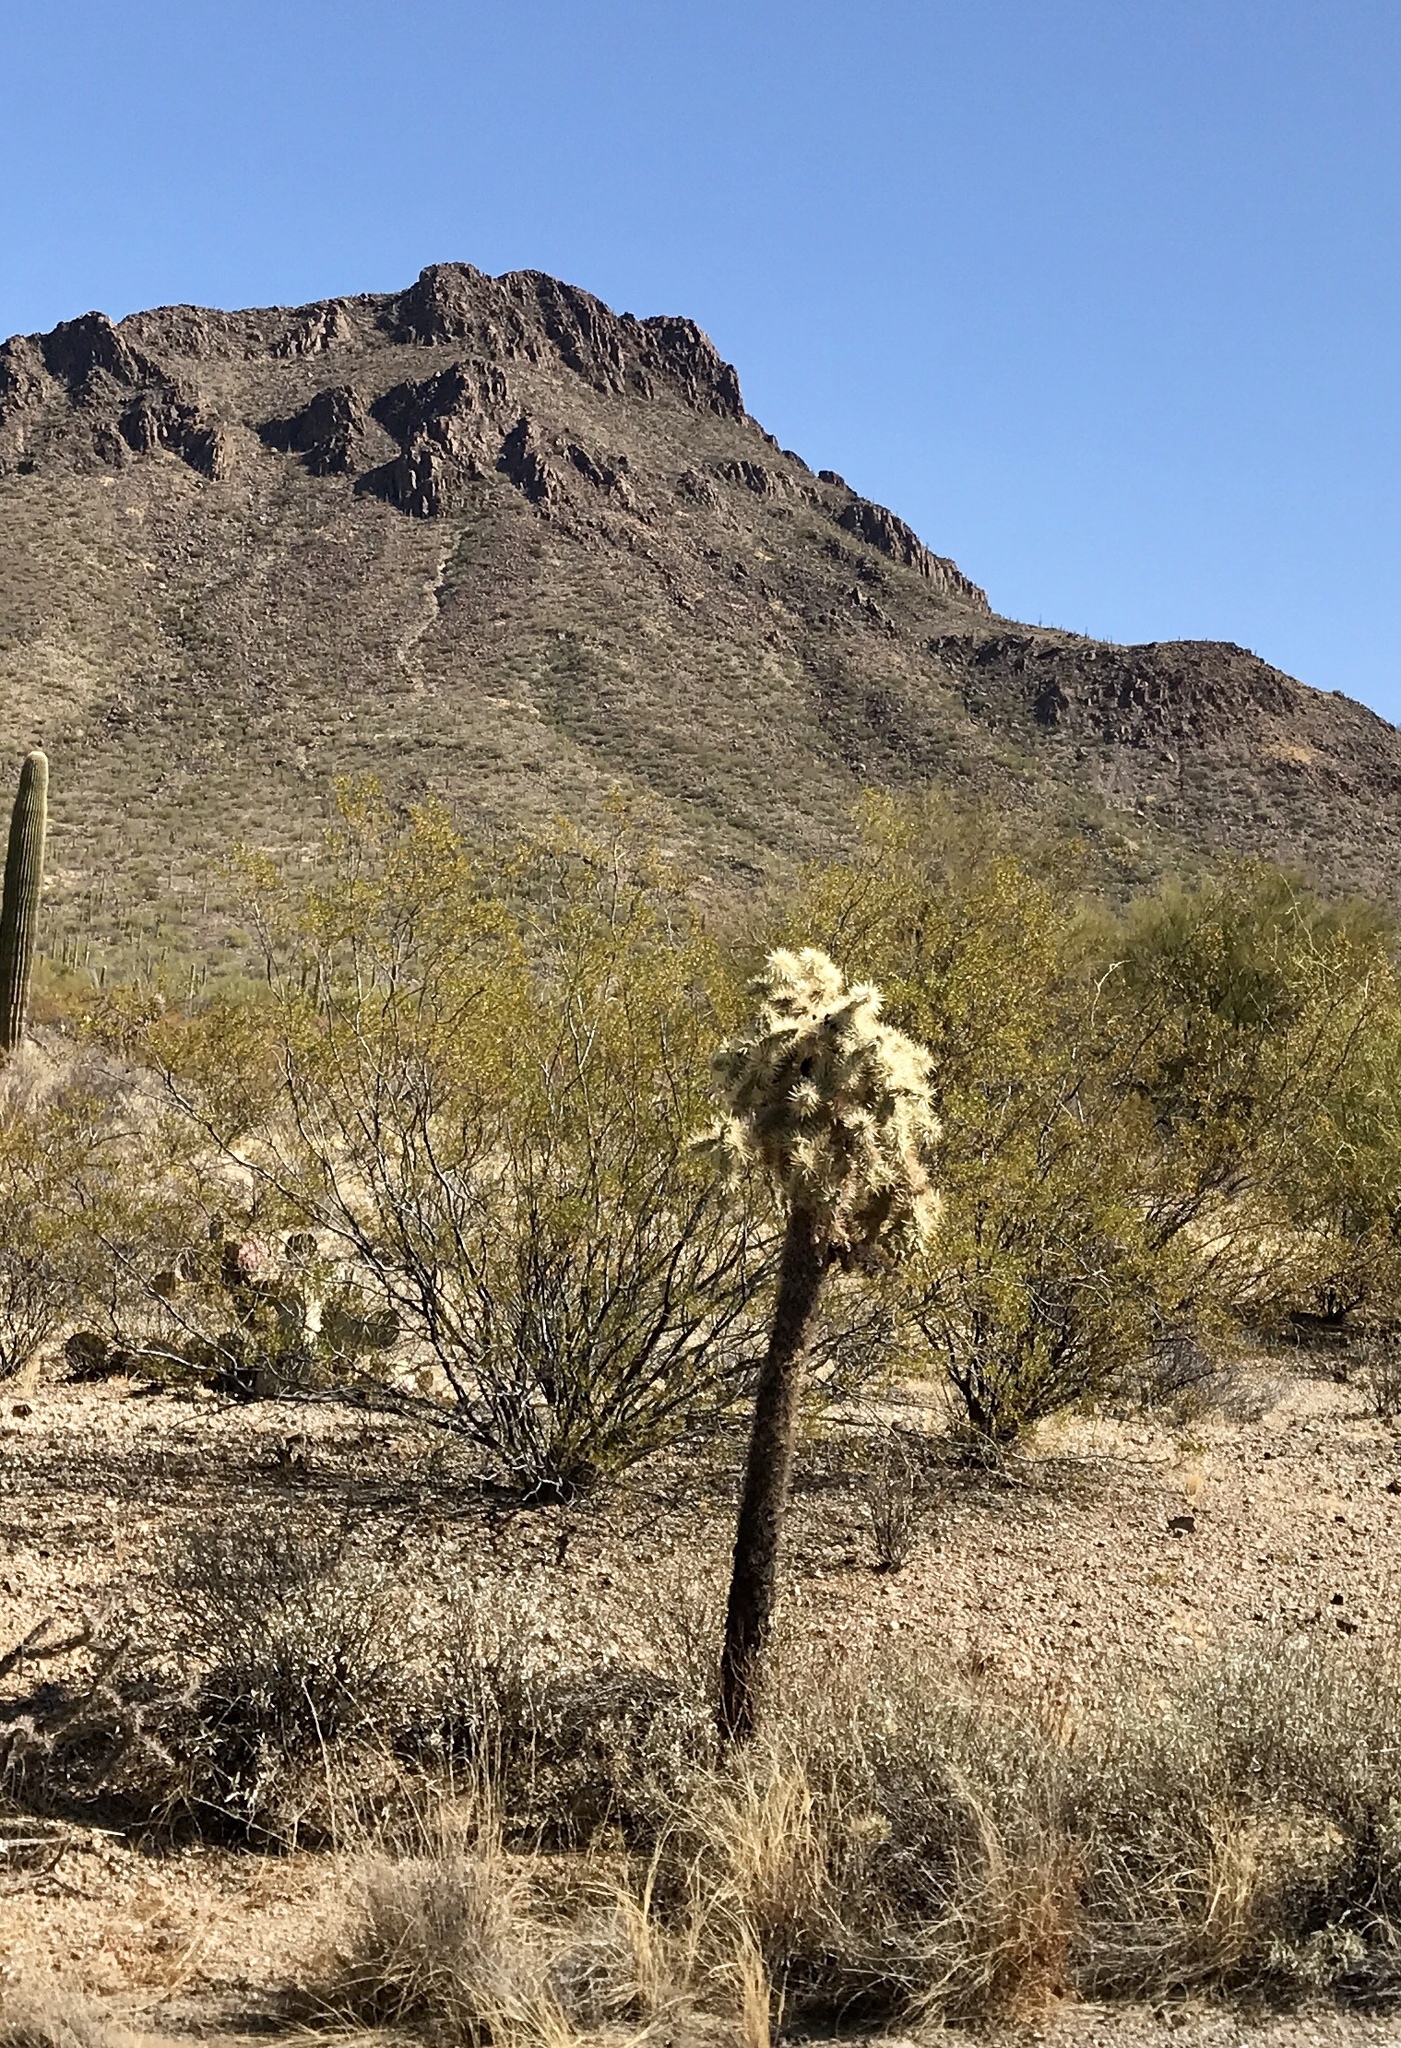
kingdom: Plantae
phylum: Tracheophyta
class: Magnoliopsida
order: Caryophyllales
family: Cactaceae
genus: Cylindropuntia
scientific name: Cylindropuntia fulgida
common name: Jumping cholla
